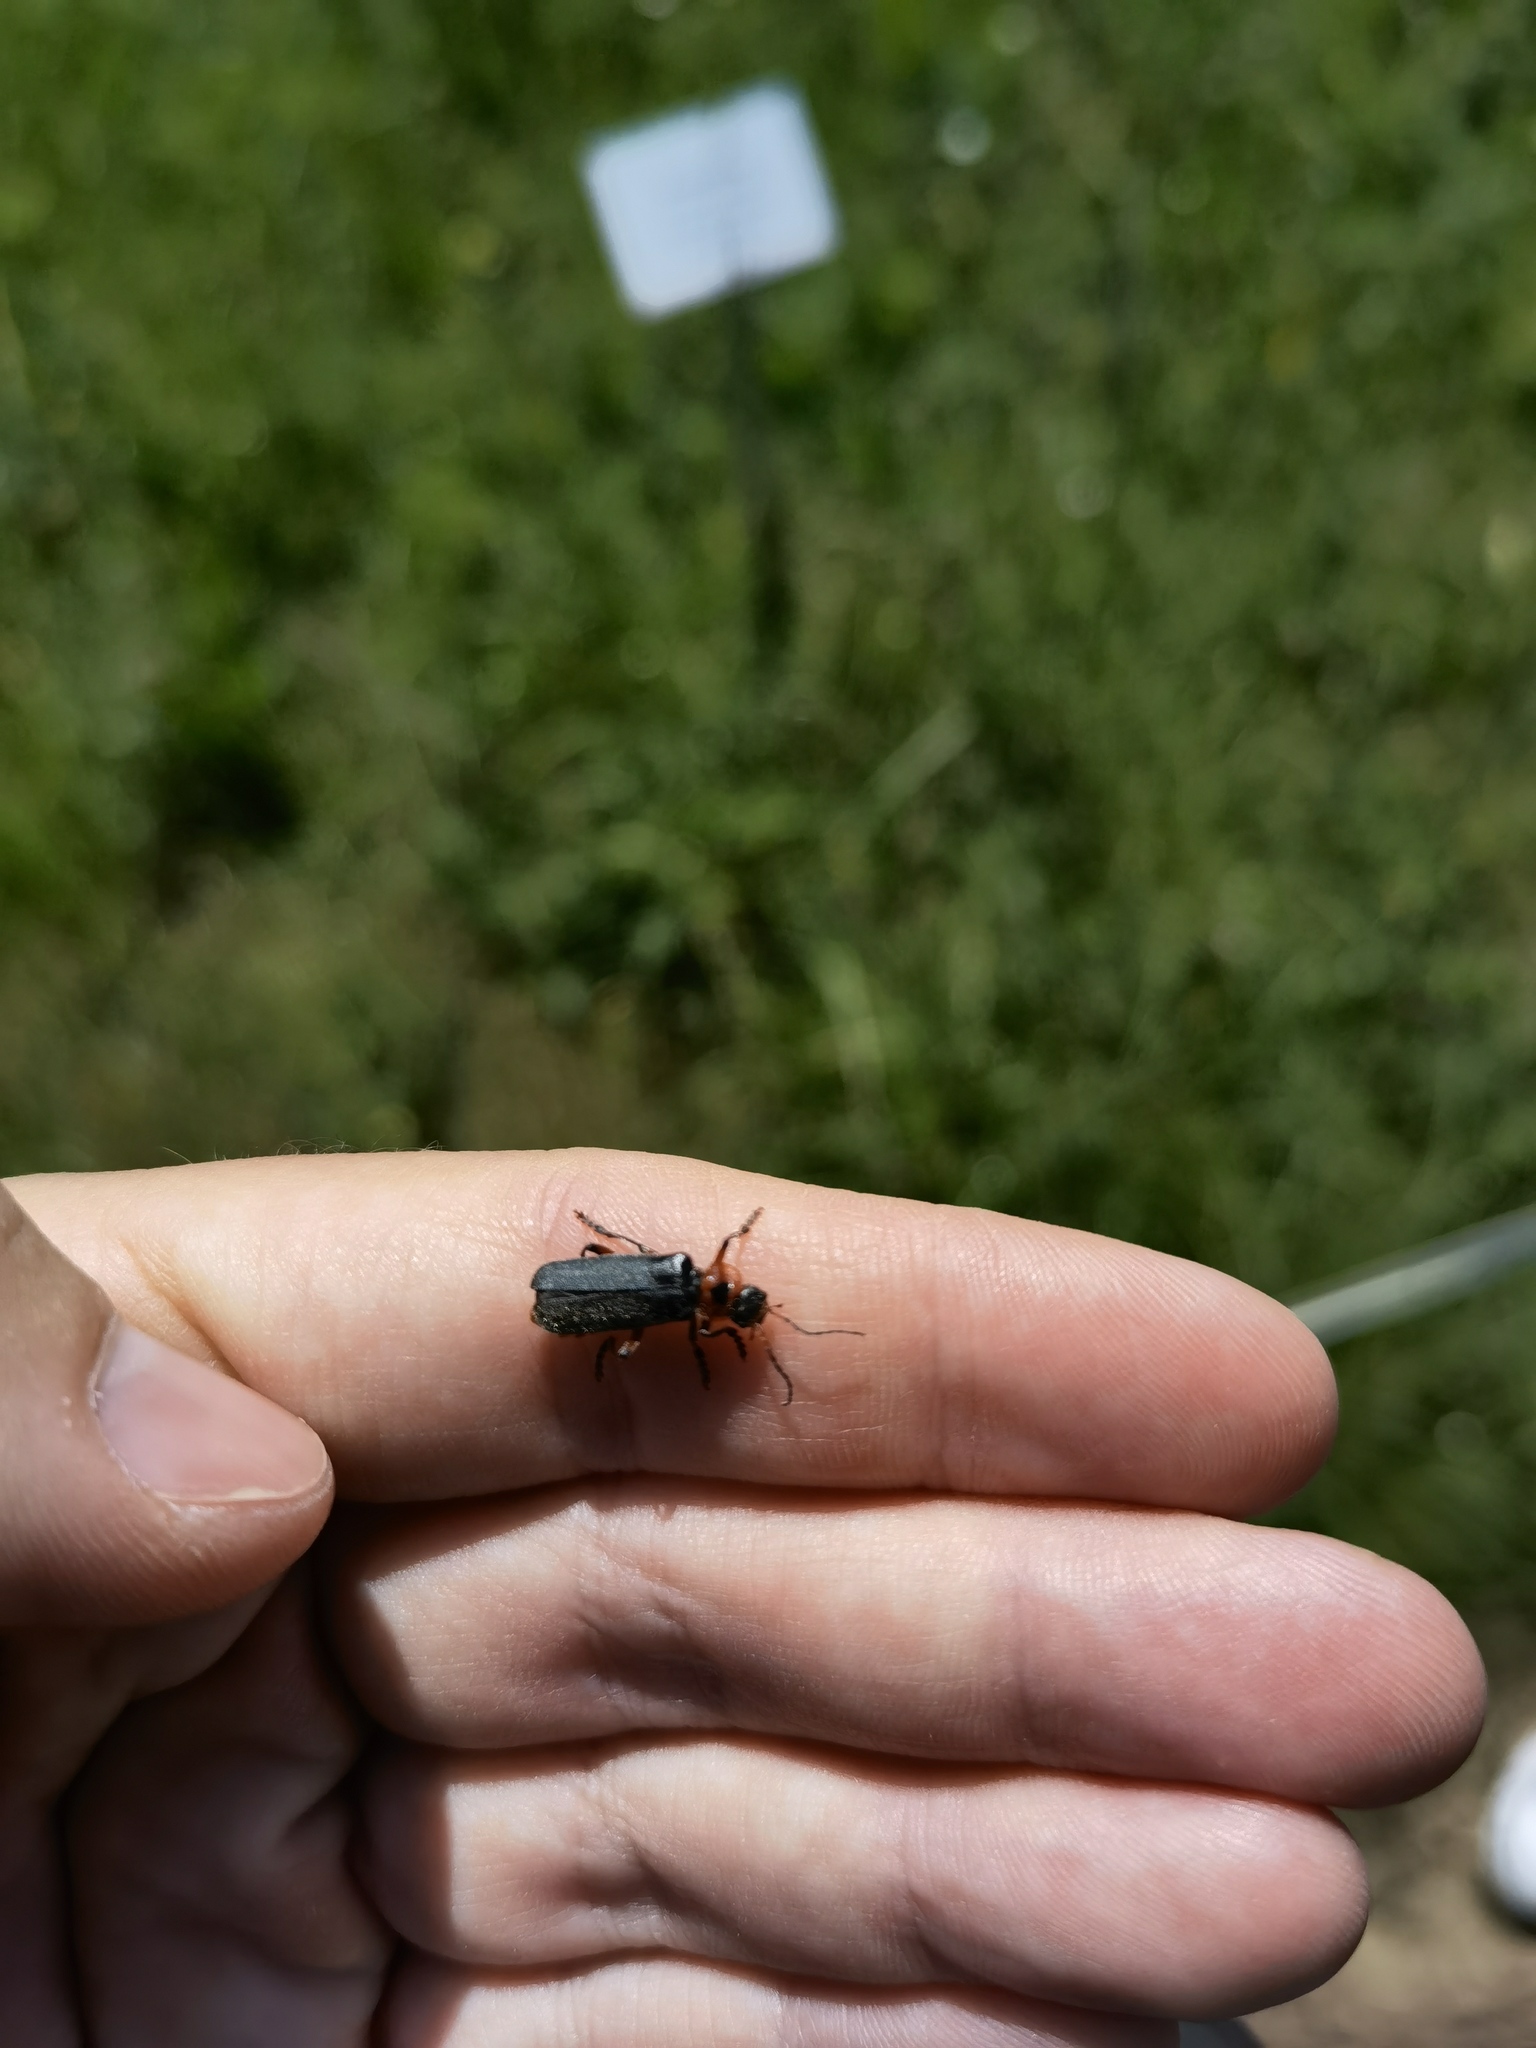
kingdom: Animalia
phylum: Arthropoda
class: Insecta
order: Coleoptera
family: Cantharidae
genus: Cantharis
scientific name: Cantharis rustica
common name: Soldier beetle
